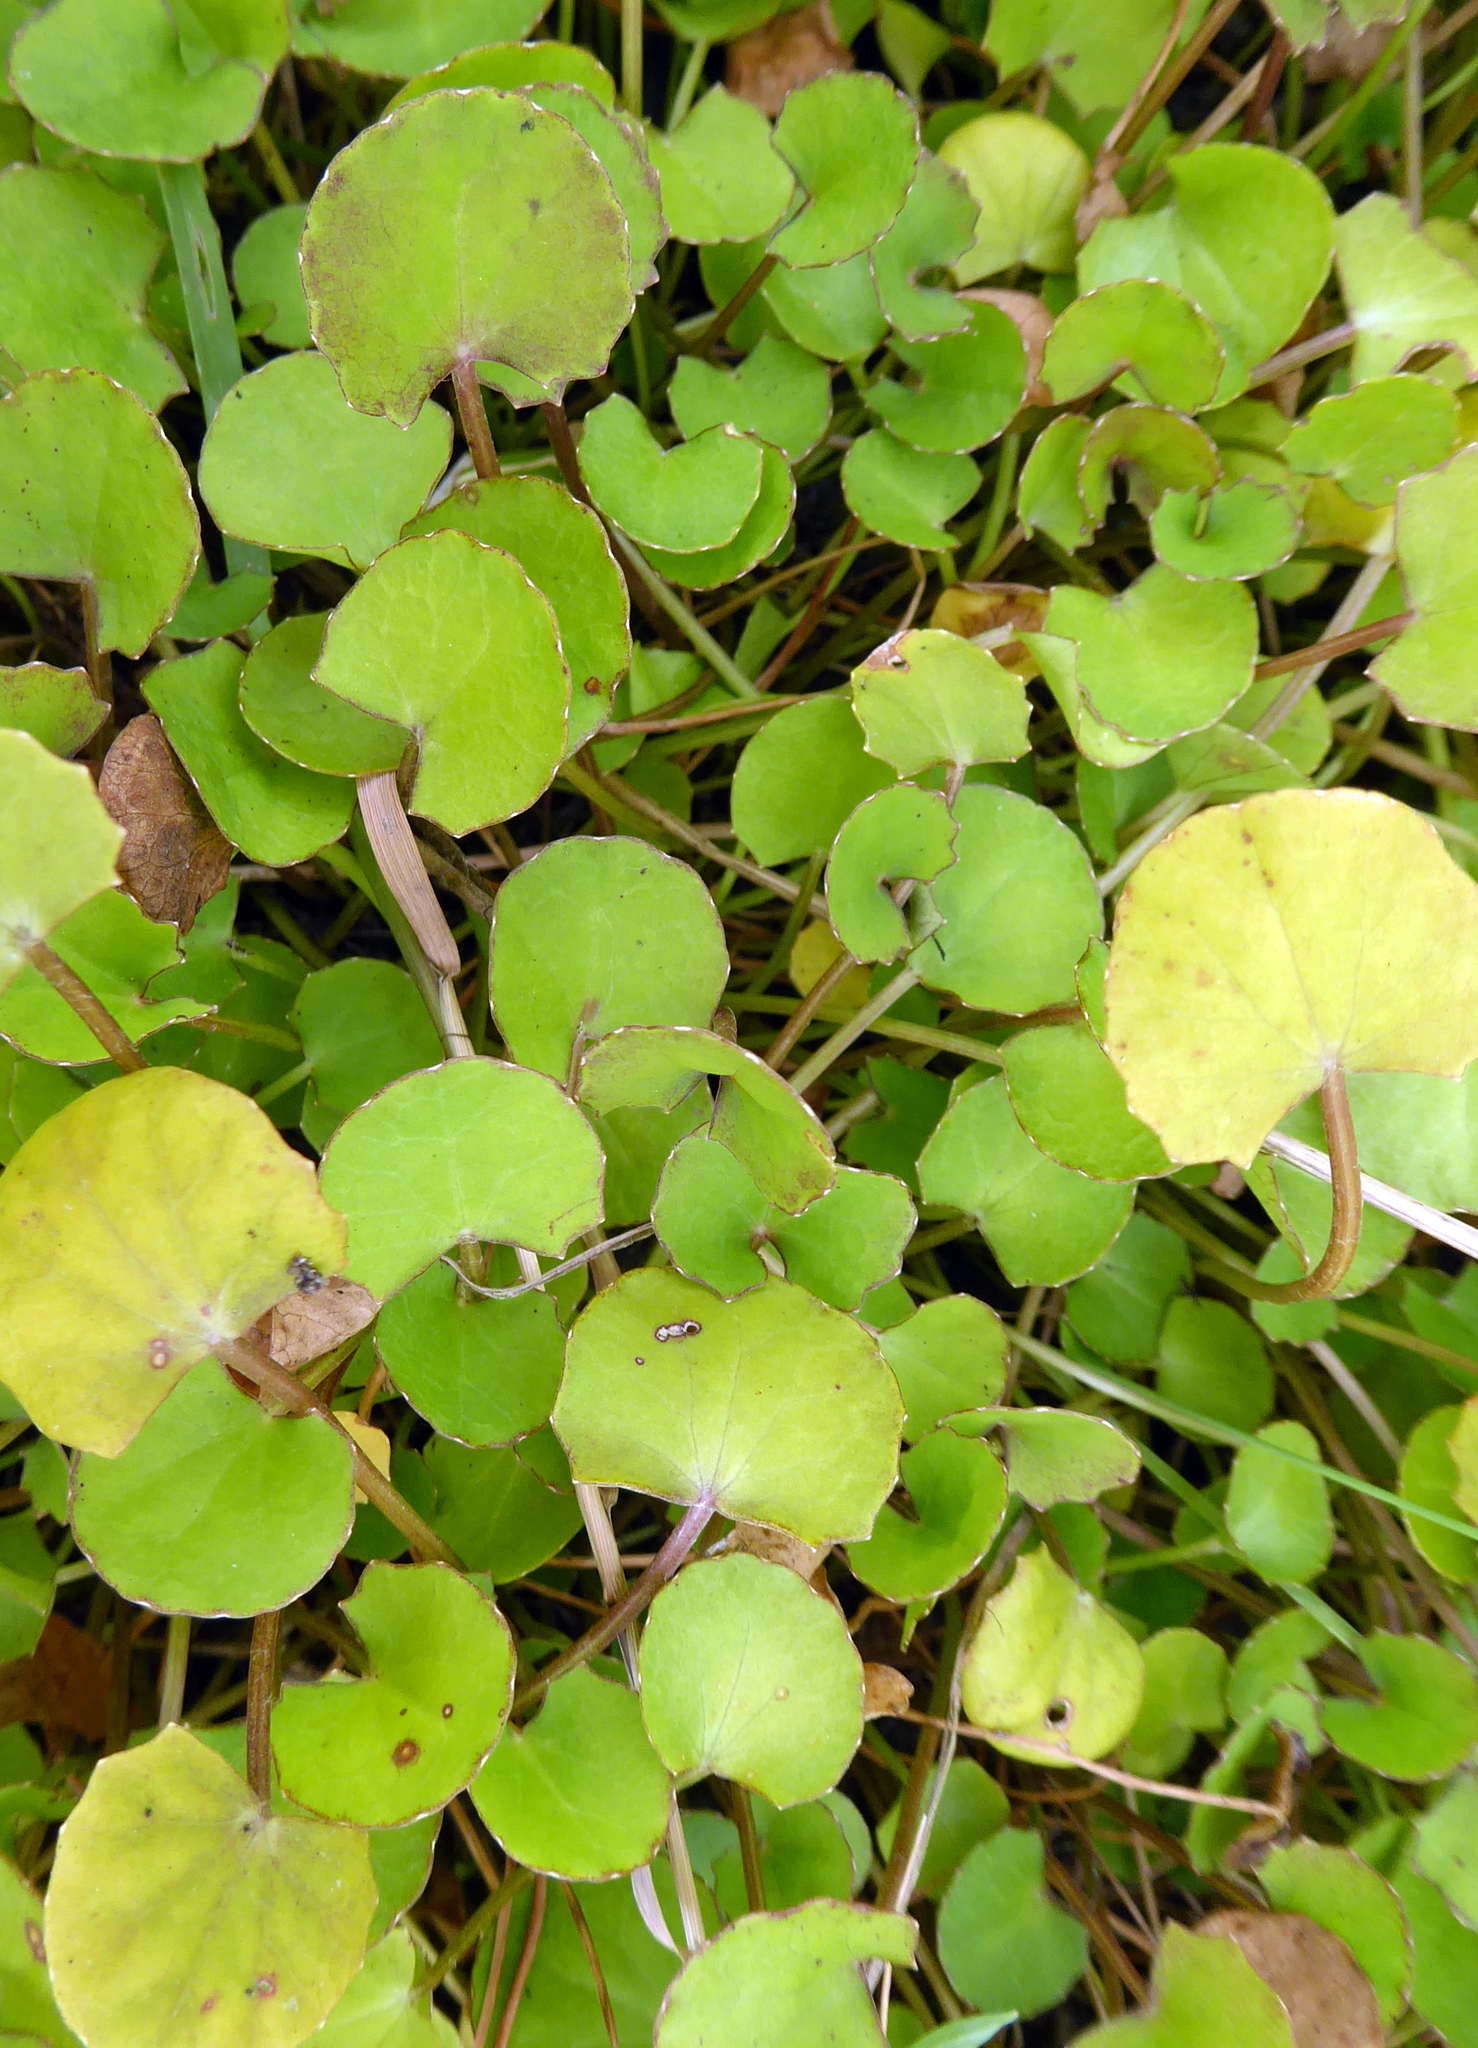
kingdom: Plantae
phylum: Tracheophyta
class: Magnoliopsida
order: Apiales
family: Apiaceae
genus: Centella
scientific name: Centella uniflora
